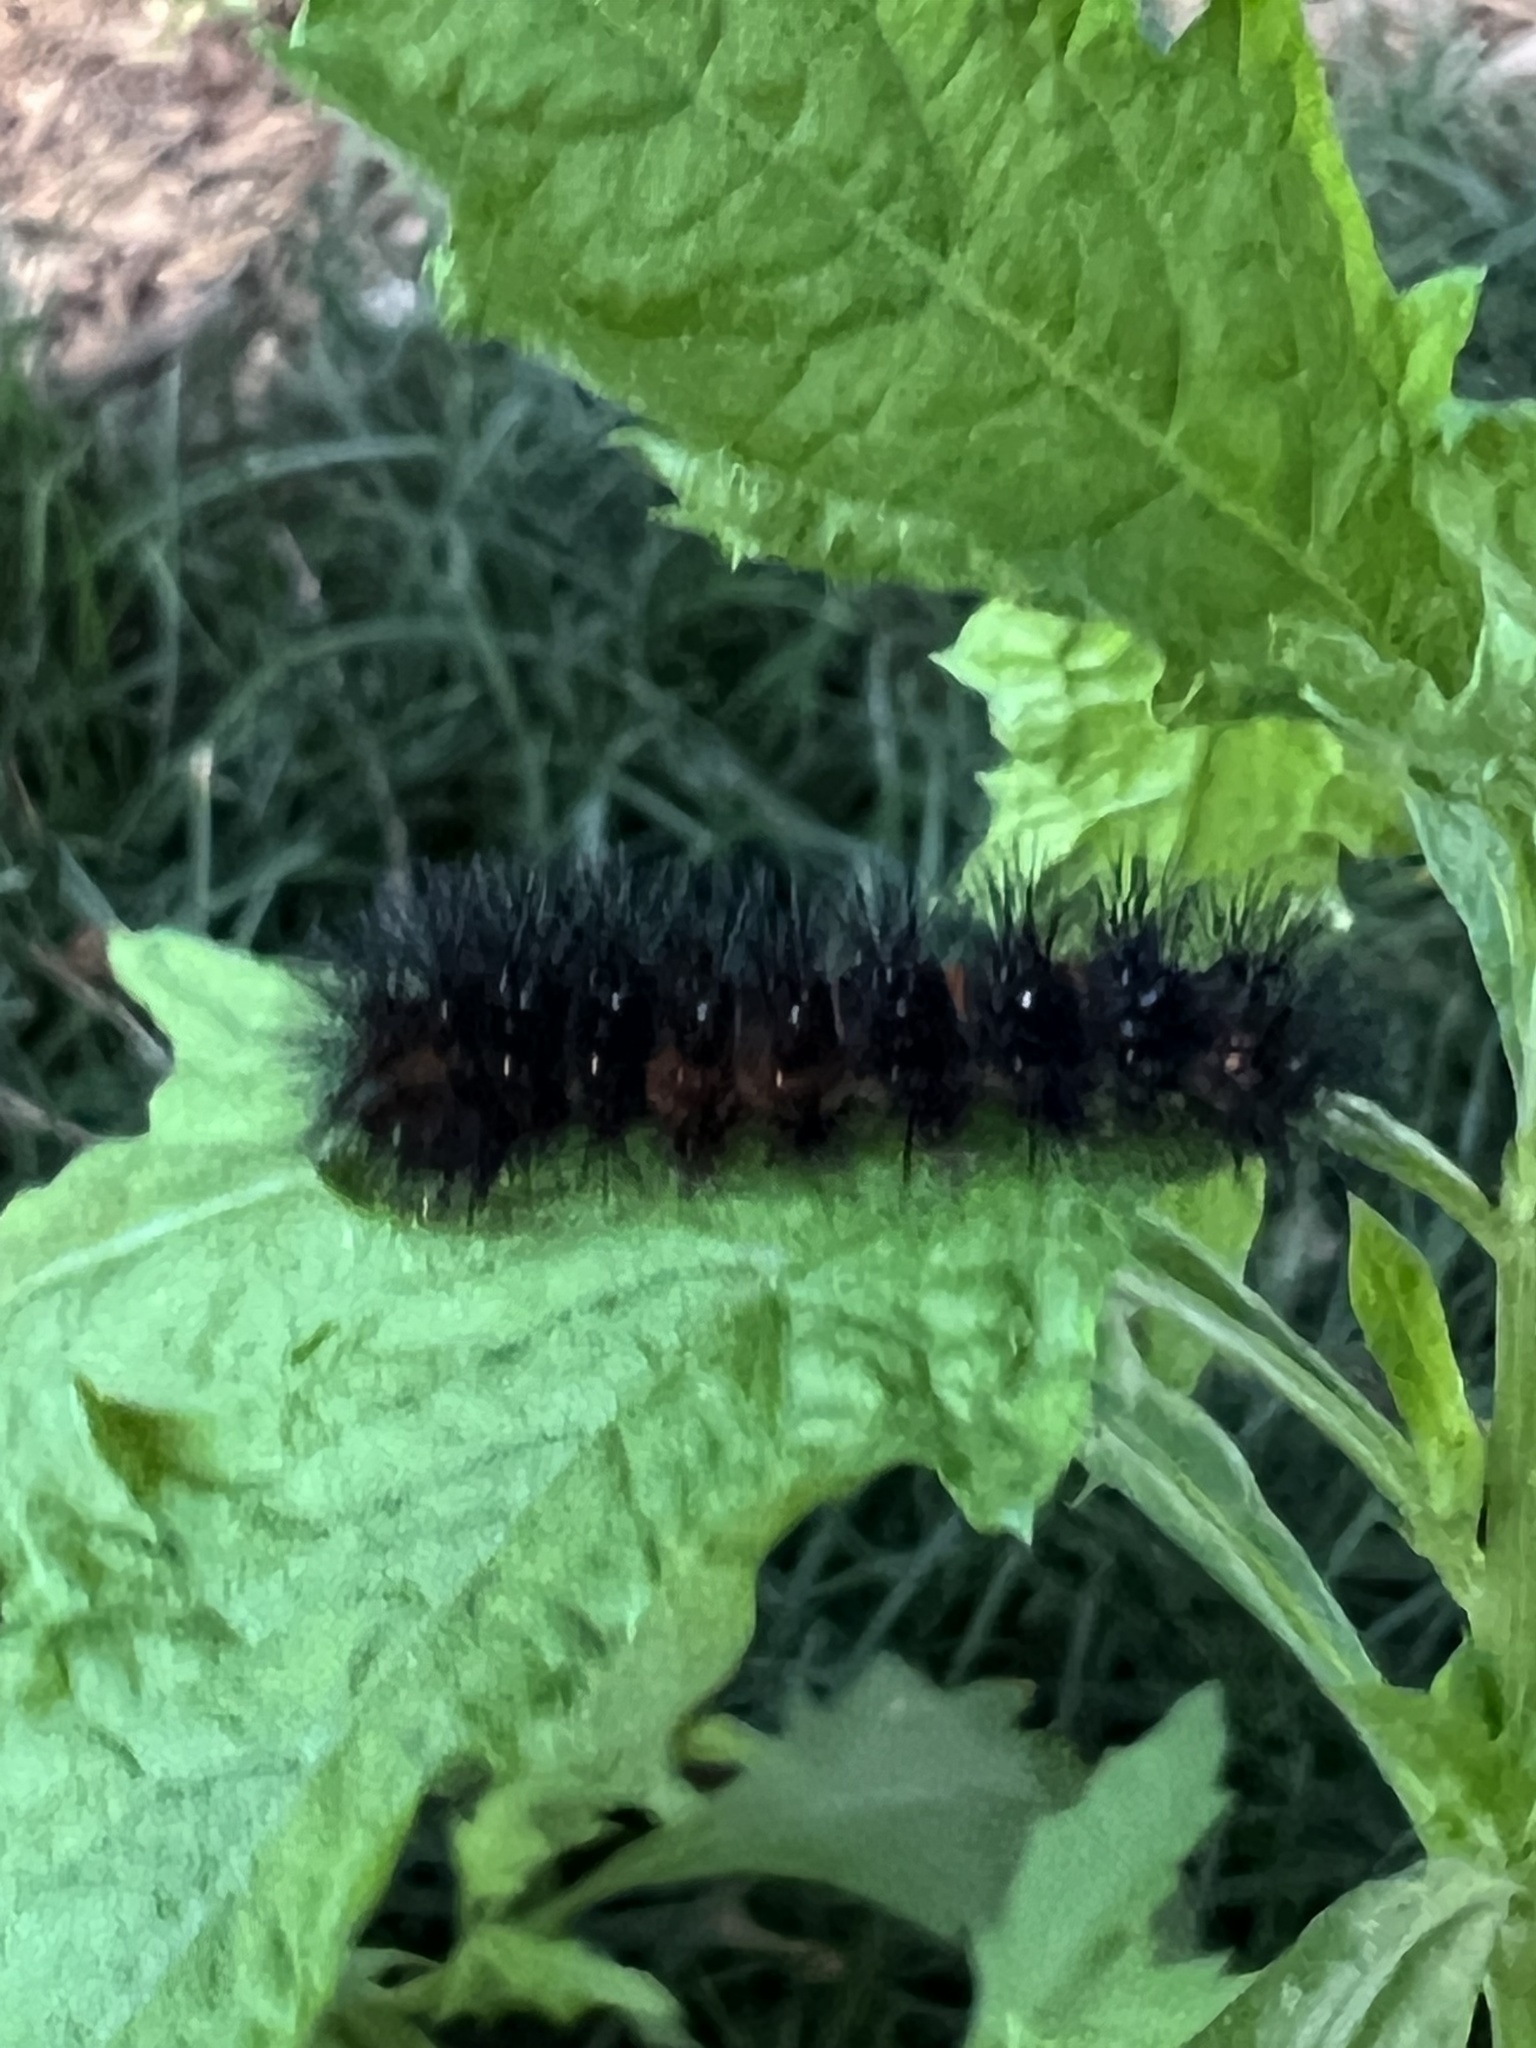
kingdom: Animalia
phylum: Arthropoda
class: Insecta
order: Lepidoptera
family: Erebidae
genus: Hypercompe
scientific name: Hypercompe scribonia
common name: Giant leopard moth
